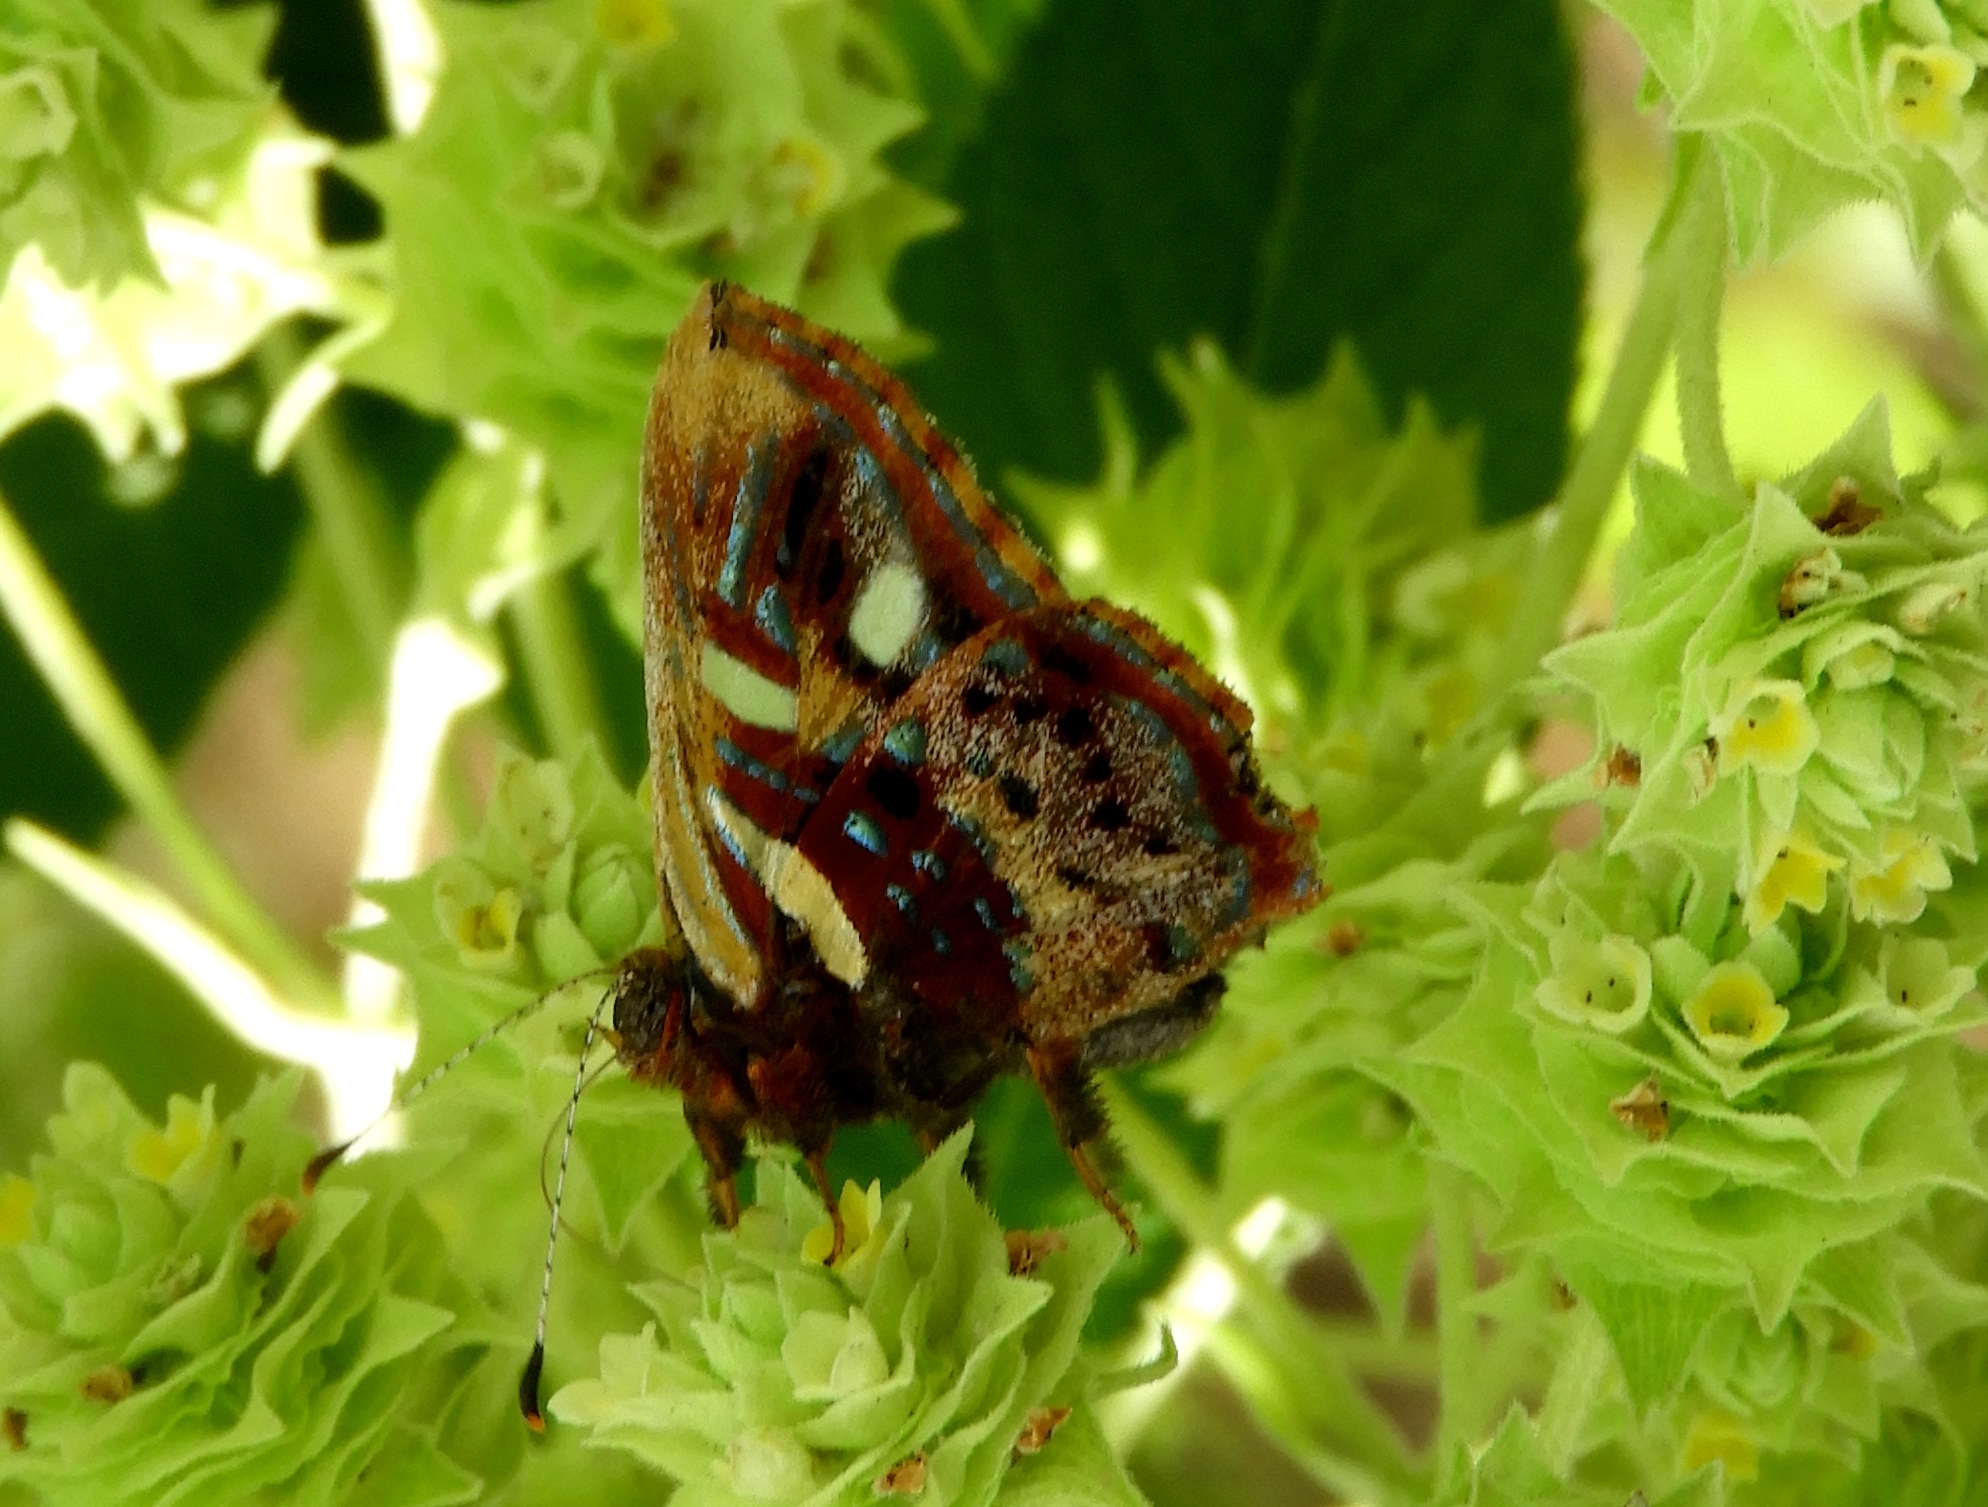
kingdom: Animalia
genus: Anteros
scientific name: Anteros carausius
